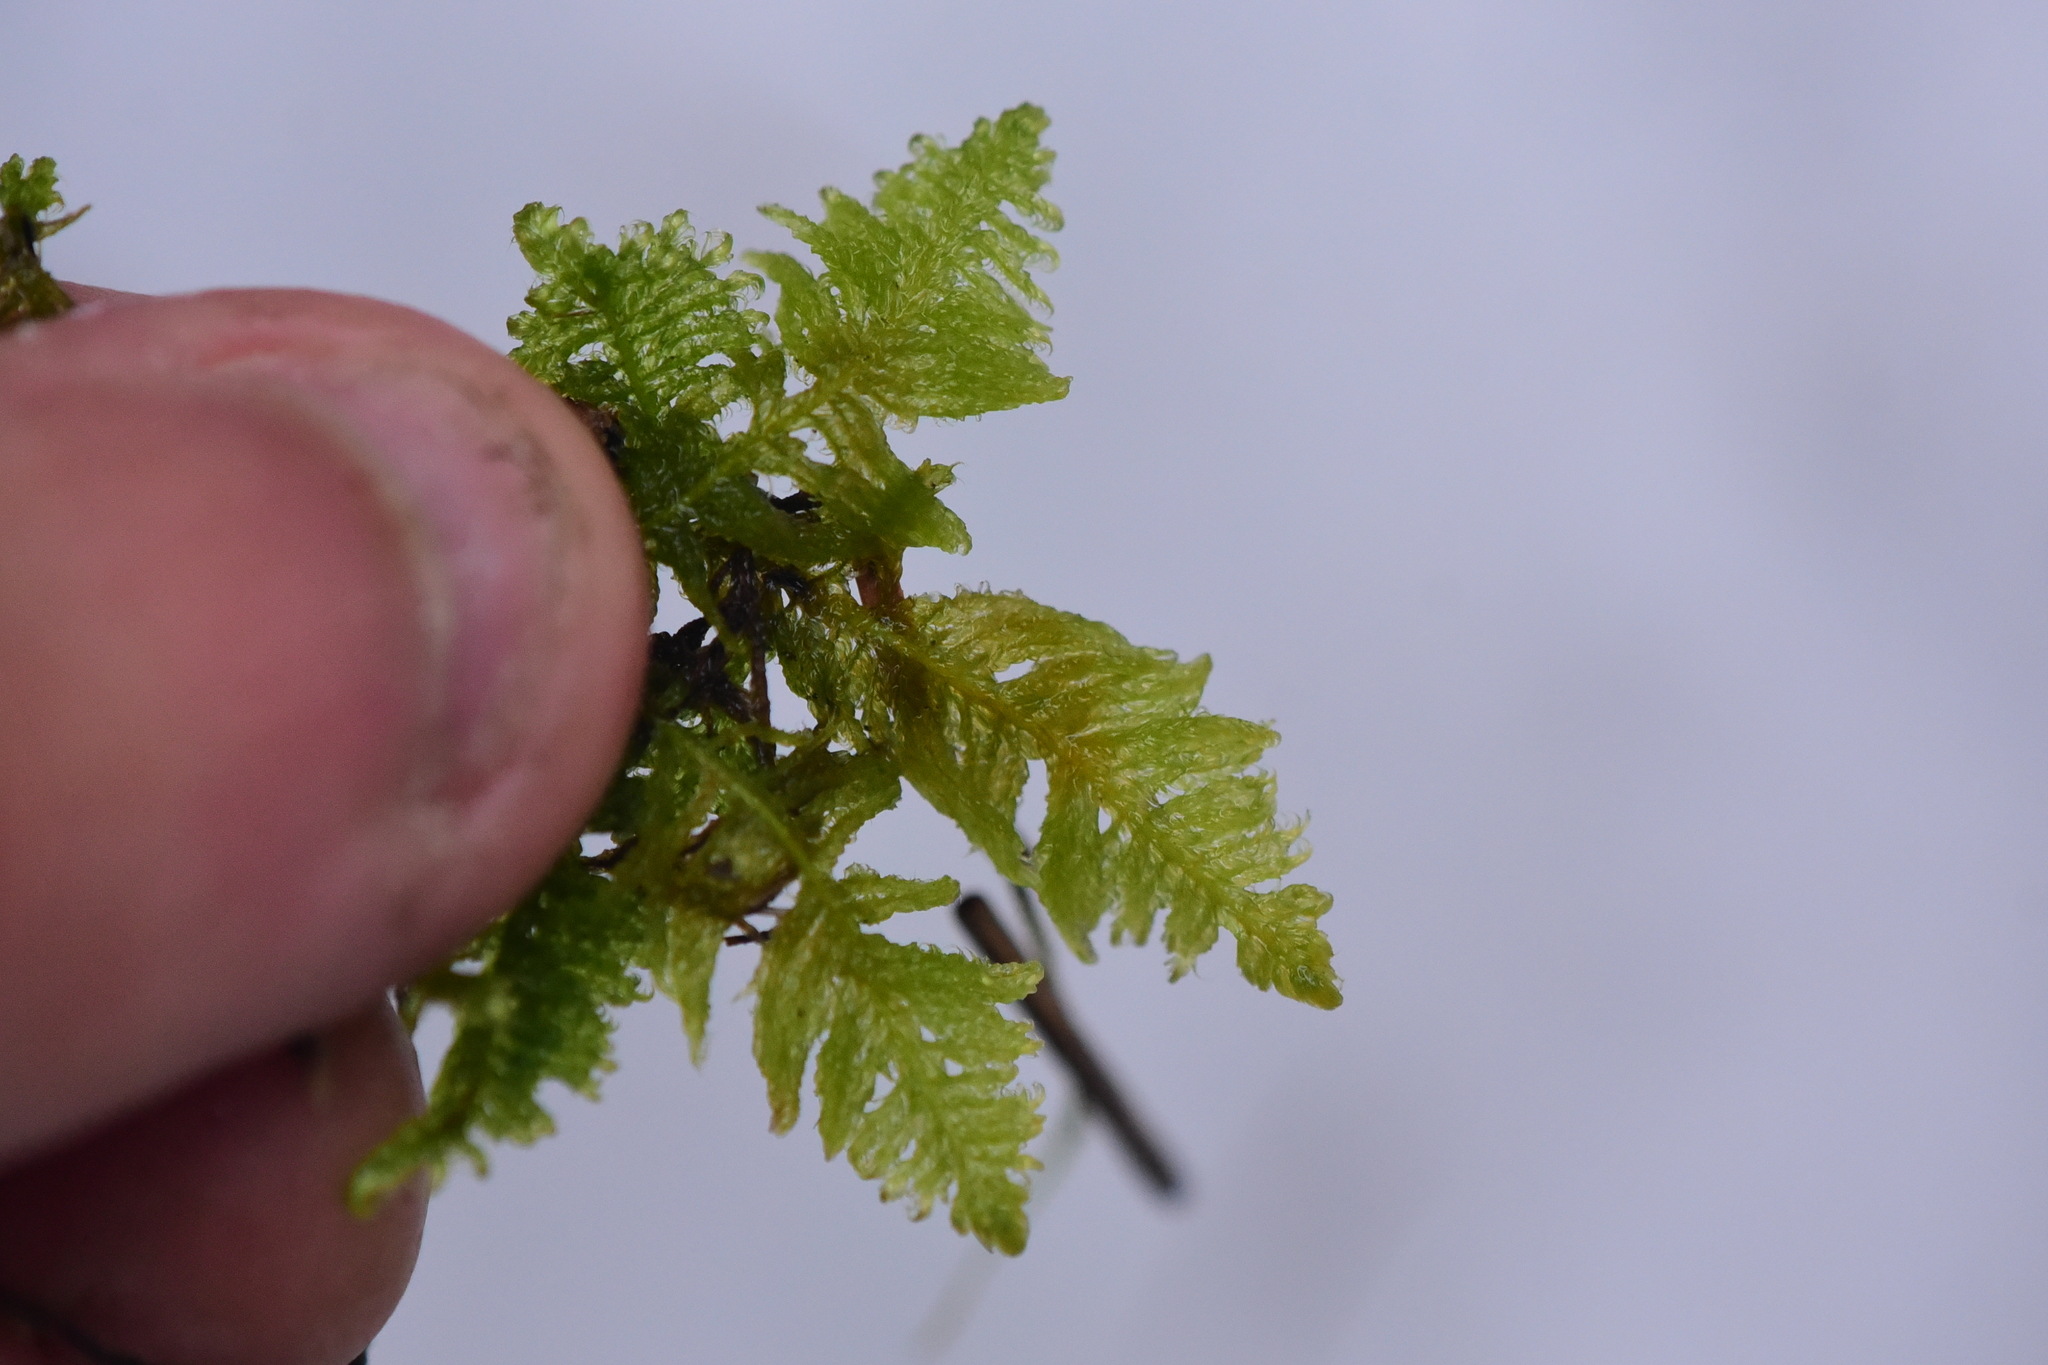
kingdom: Plantae
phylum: Bryophyta
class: Bryopsida
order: Hypnales
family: Pylaisiaceae
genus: Ptilium
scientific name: Ptilium crista-castrensis
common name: Knight's plume moss
